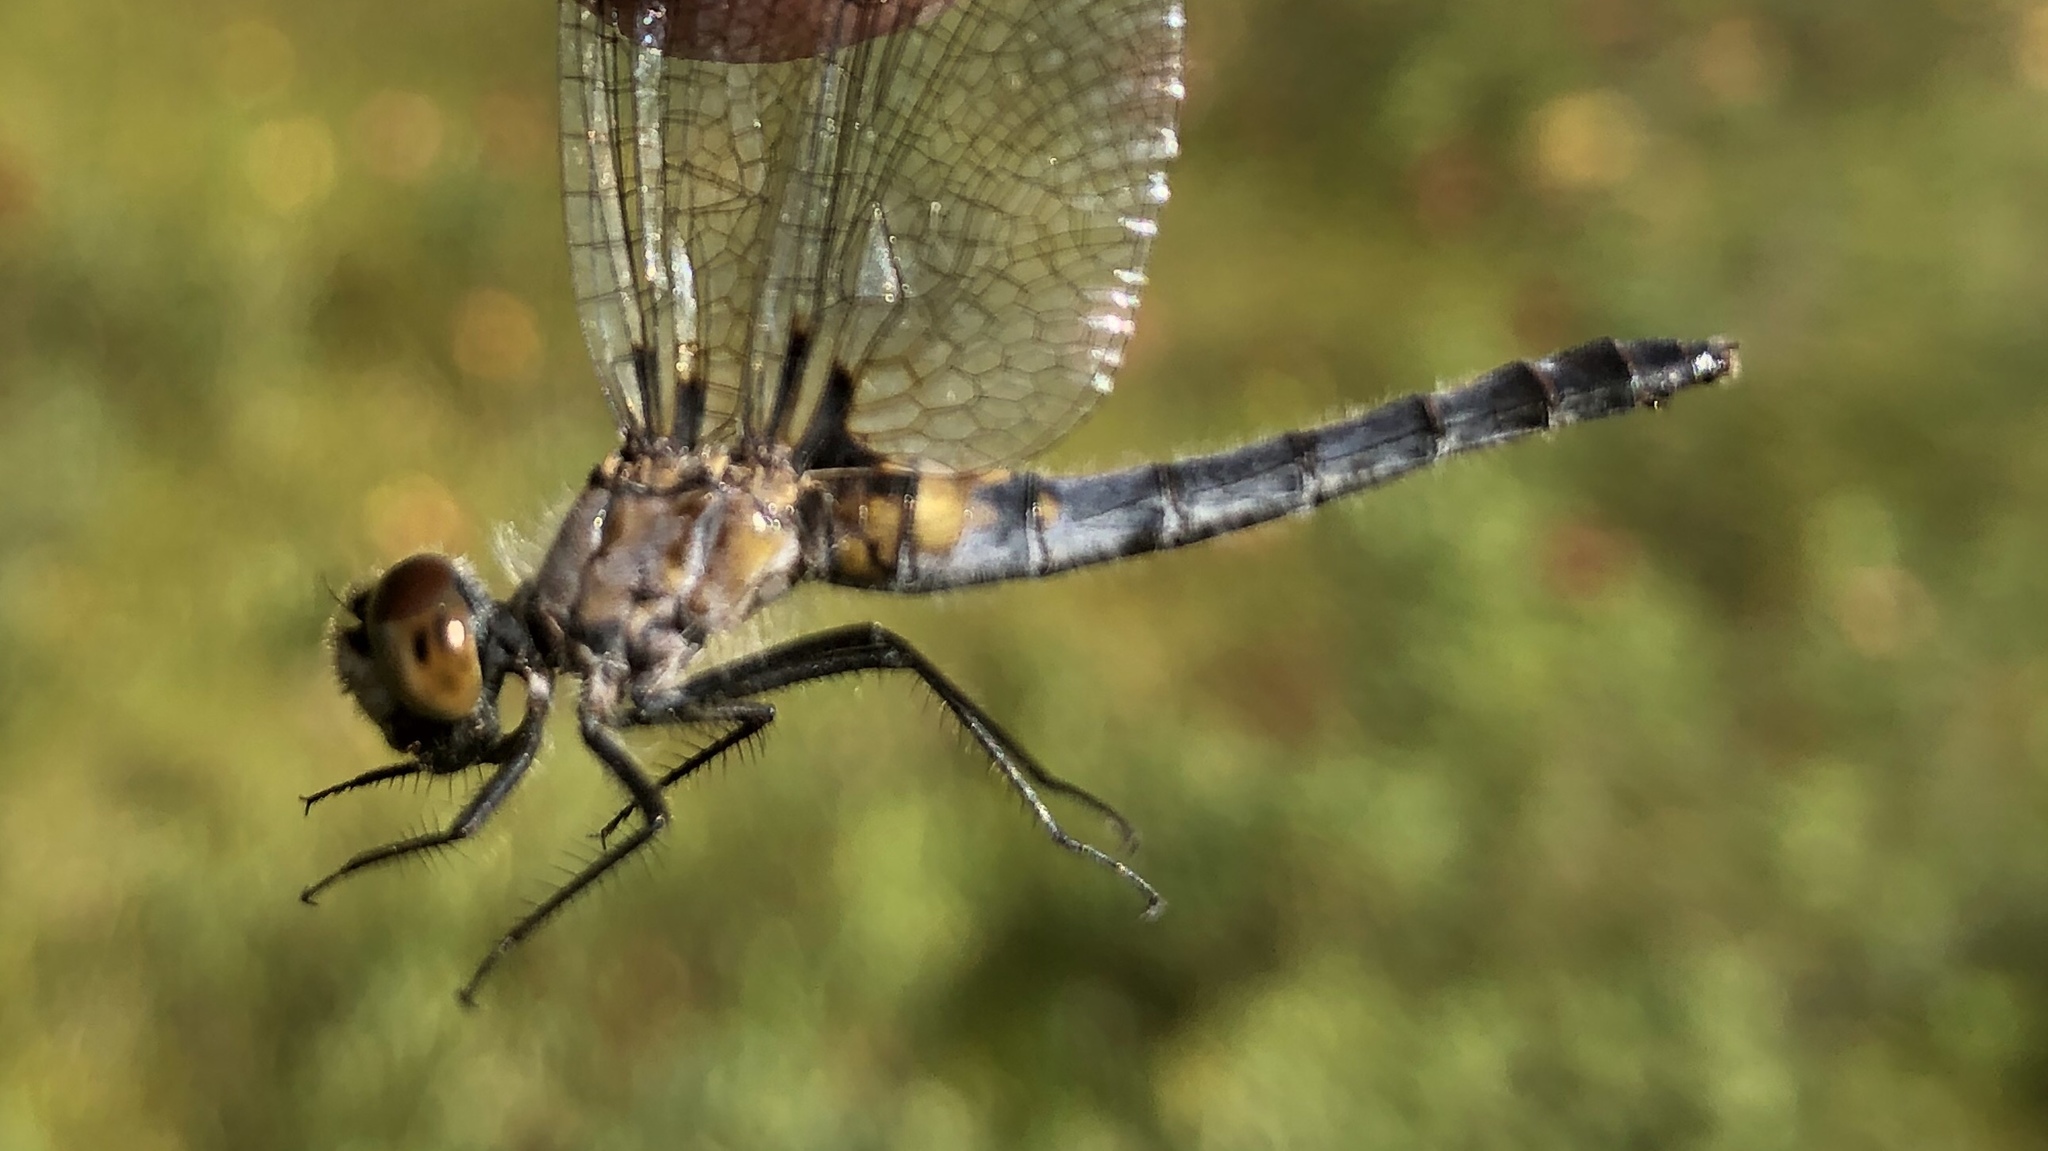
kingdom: Animalia
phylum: Arthropoda
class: Insecta
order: Odonata
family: Libellulidae
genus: Leucorrhinia
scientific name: Leucorrhinia frigida
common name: Frosted whiteface
